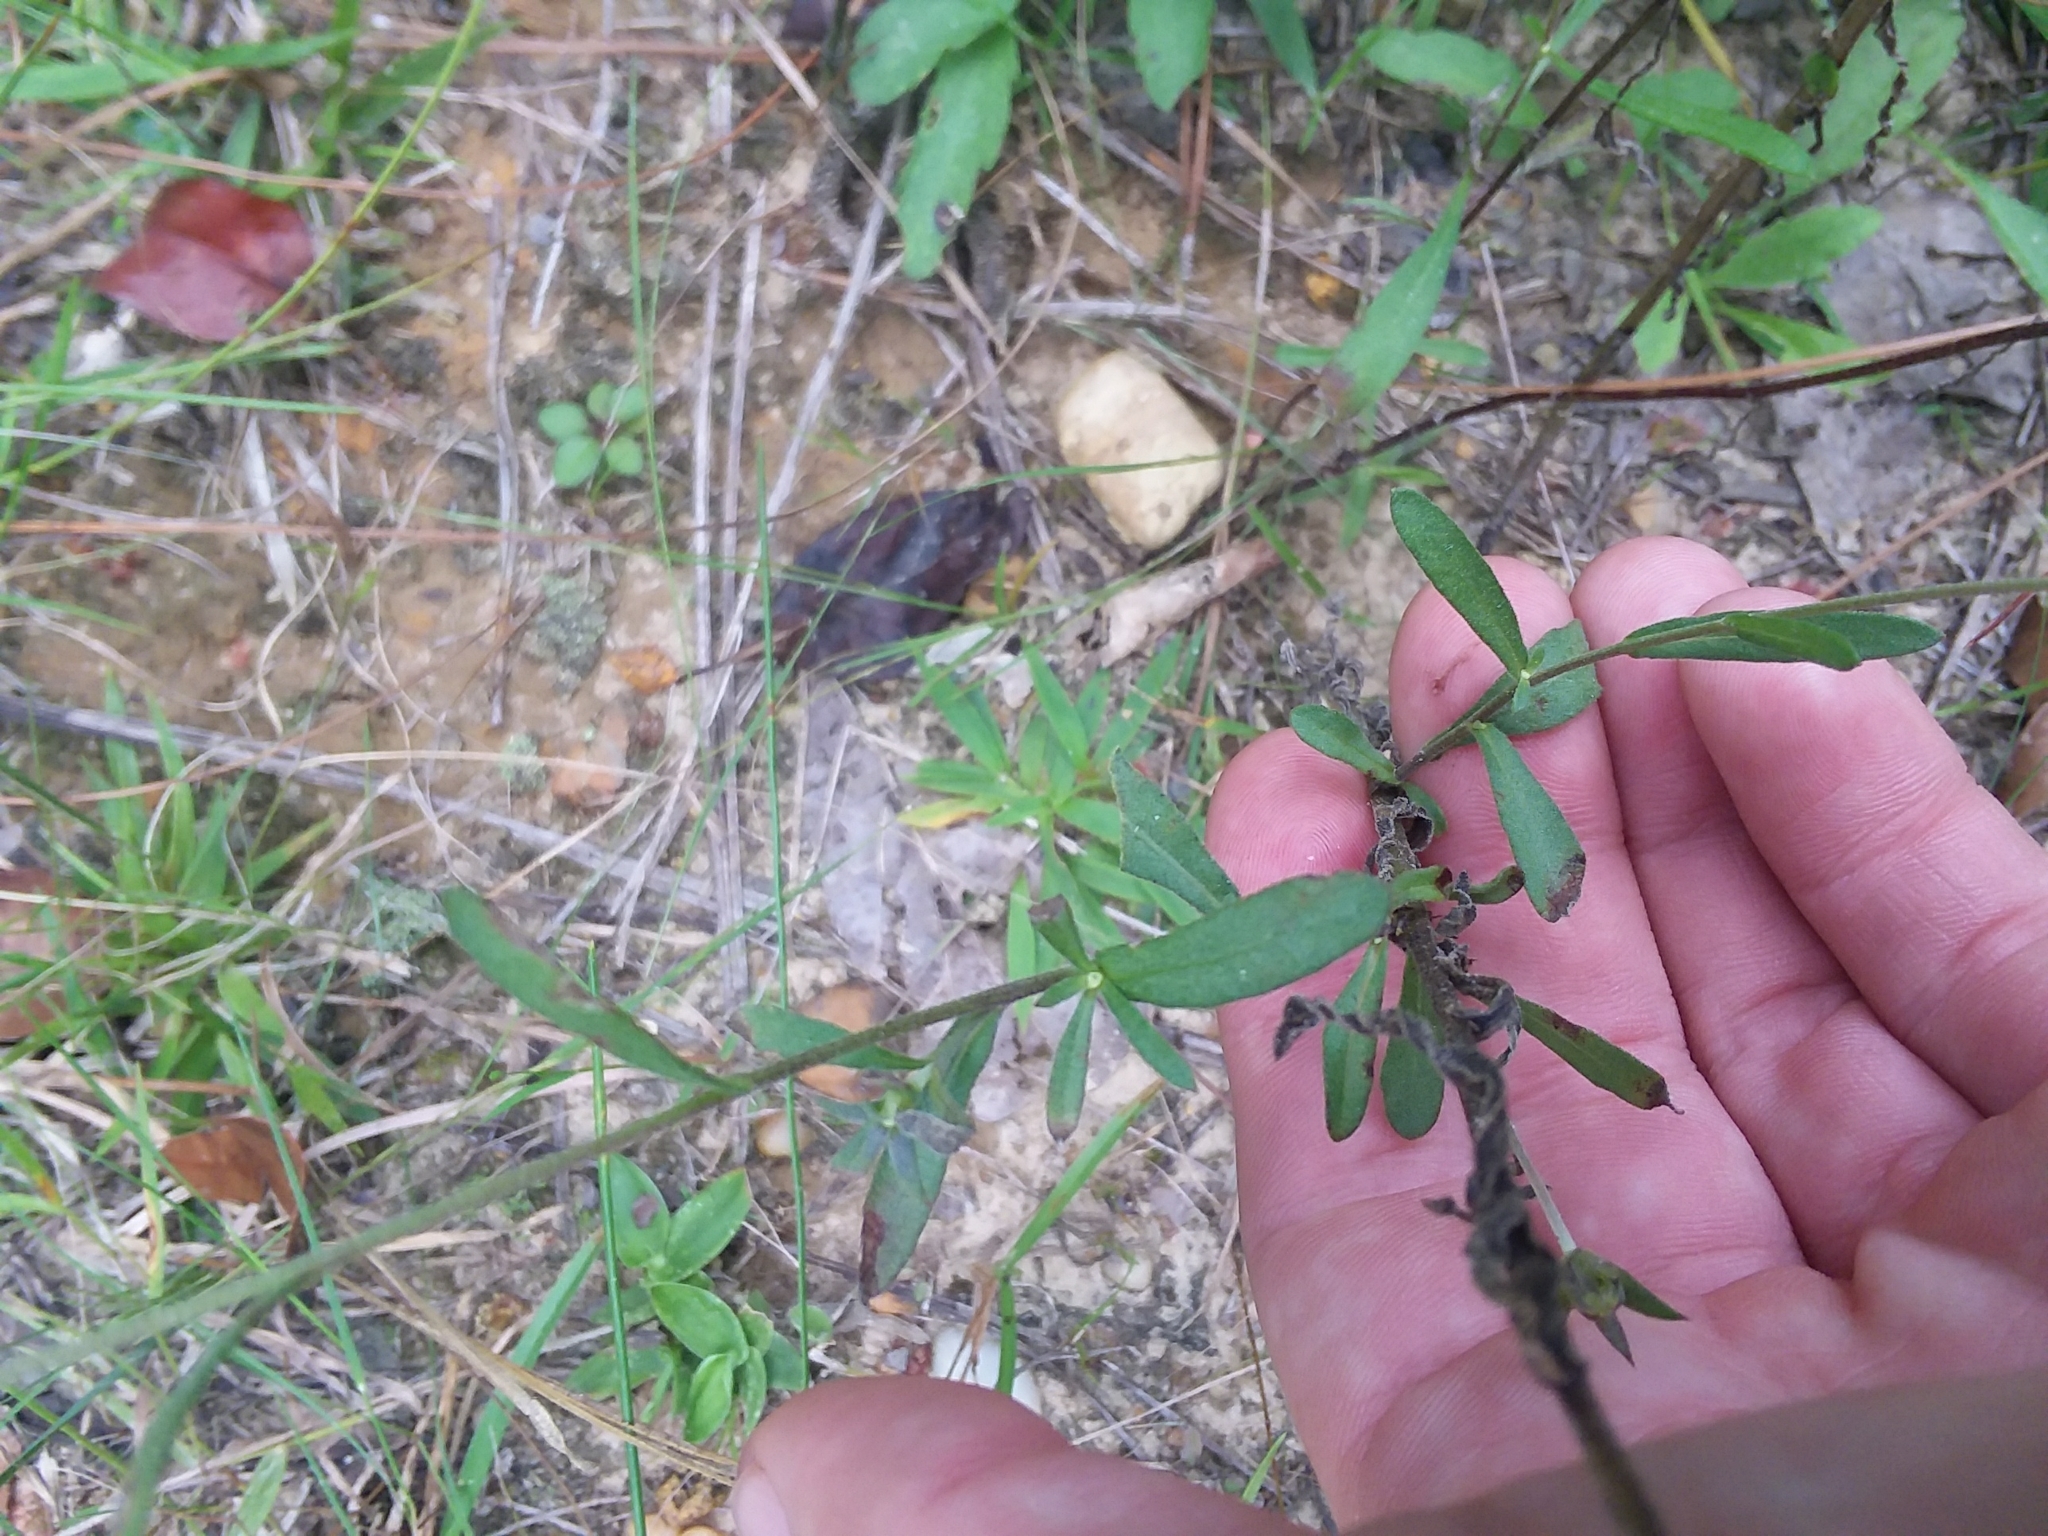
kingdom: Plantae
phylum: Tracheophyta
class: Magnoliopsida
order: Asterales
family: Asteraceae
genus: Gaillardia
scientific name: Gaillardia aestivalis
